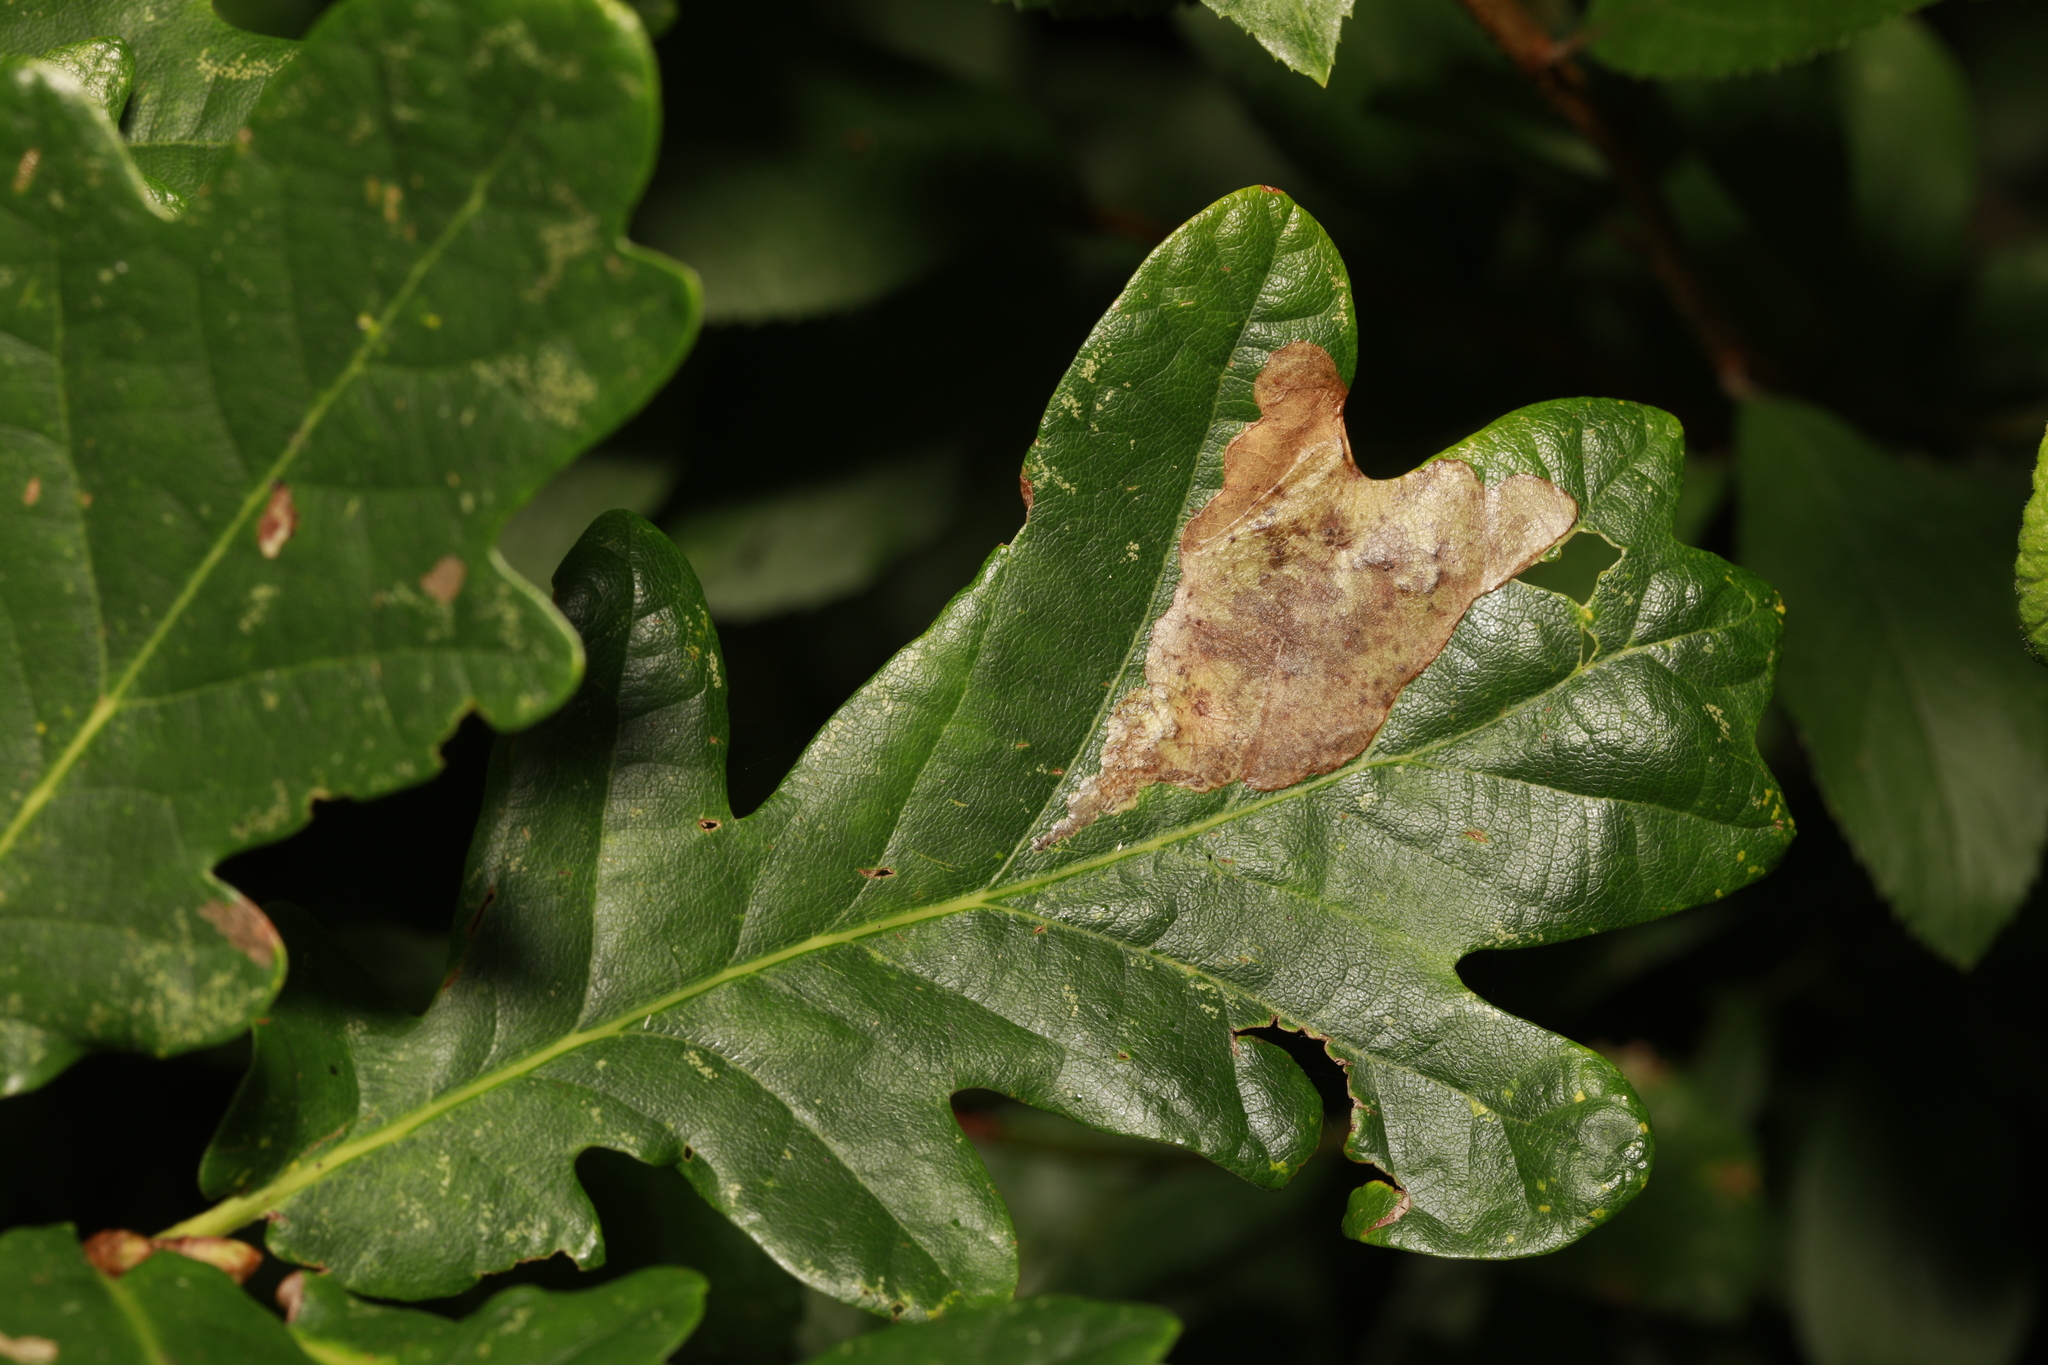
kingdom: Animalia
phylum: Arthropoda
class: Insecta
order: Lepidoptera
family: Gracillariidae
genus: Acrocercops
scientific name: Acrocercops brongniardella
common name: Brown oak slender
